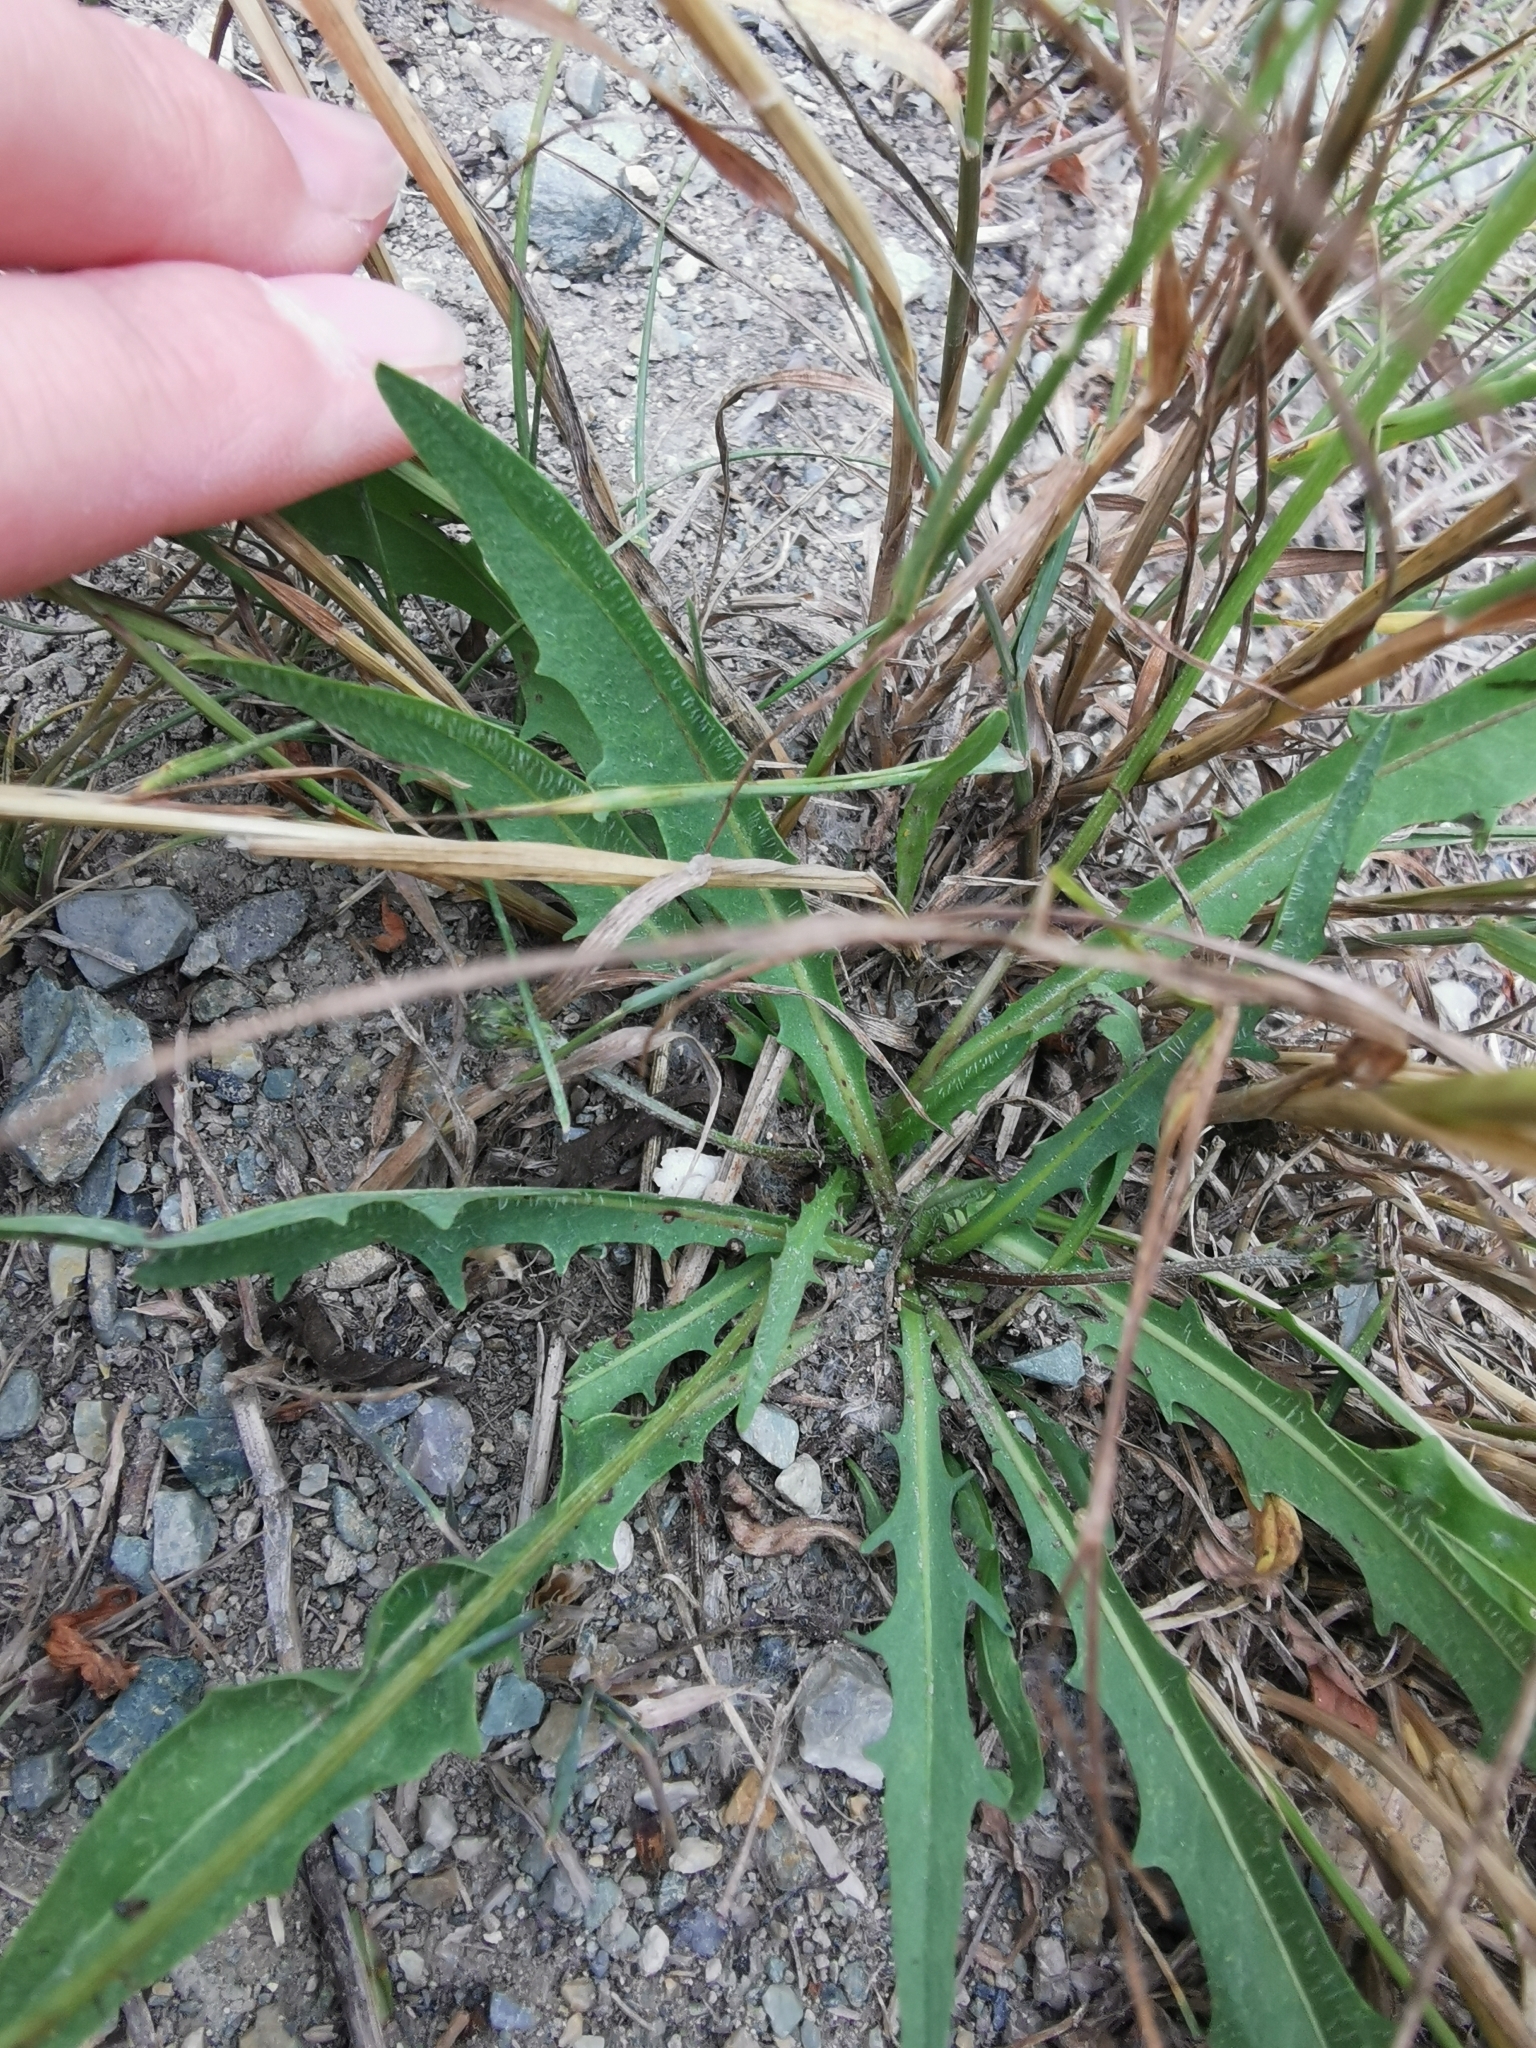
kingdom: Plantae
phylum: Tracheophyta
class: Magnoliopsida
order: Asterales
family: Asteraceae
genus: Scorzoneroides
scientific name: Scorzoneroides autumnalis
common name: Autumn hawkbit
